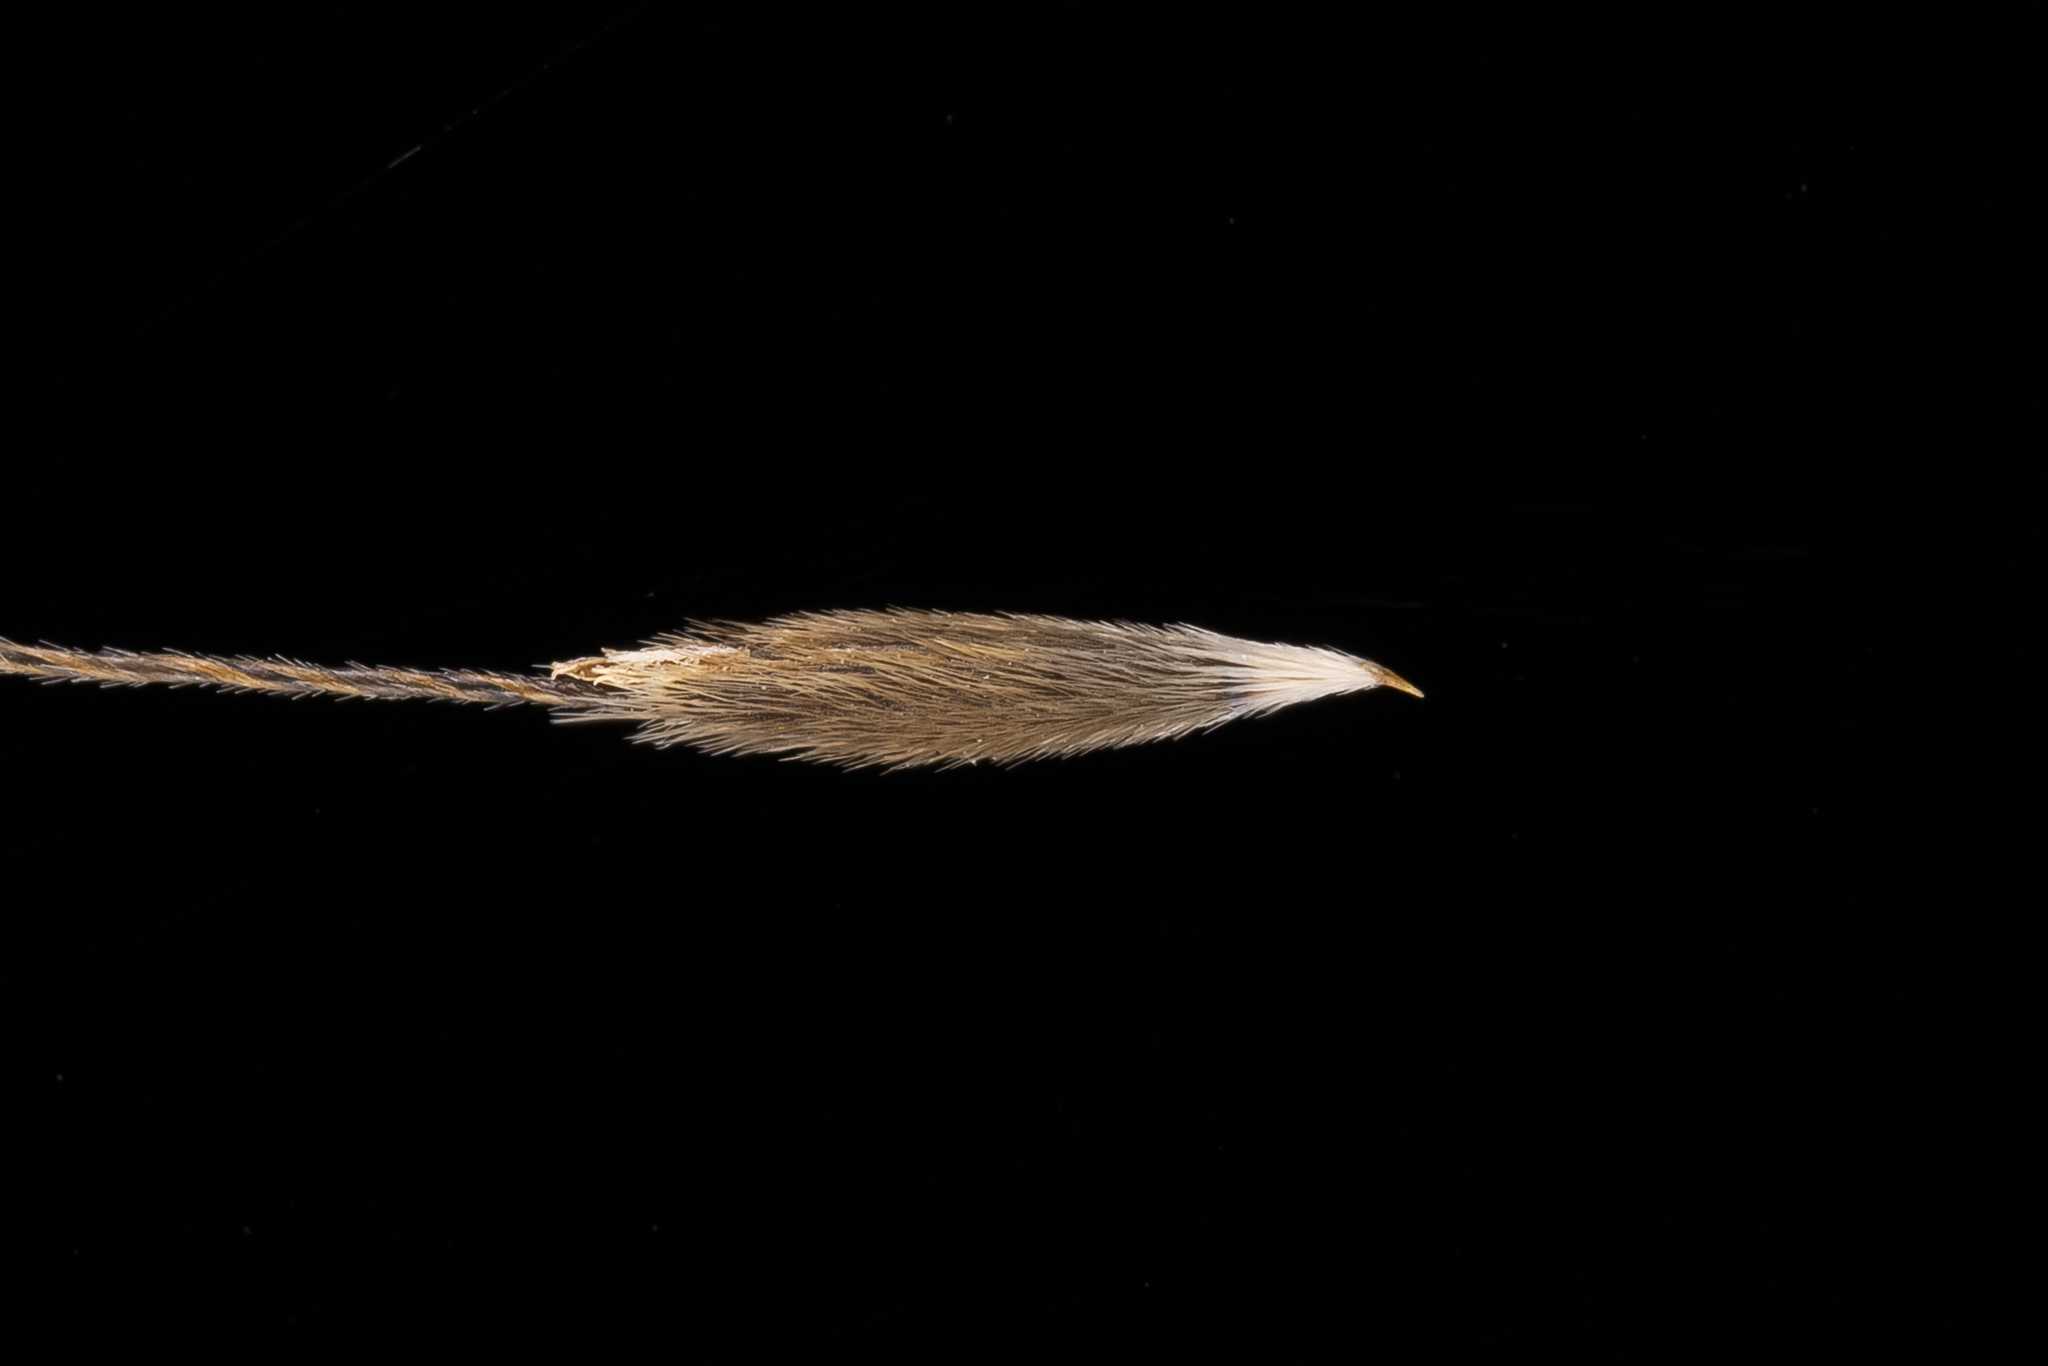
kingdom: Plantae
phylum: Tracheophyta
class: Liliopsida
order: Poales
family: Poaceae
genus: Austrostipa
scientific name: Austrostipa acrociliata
